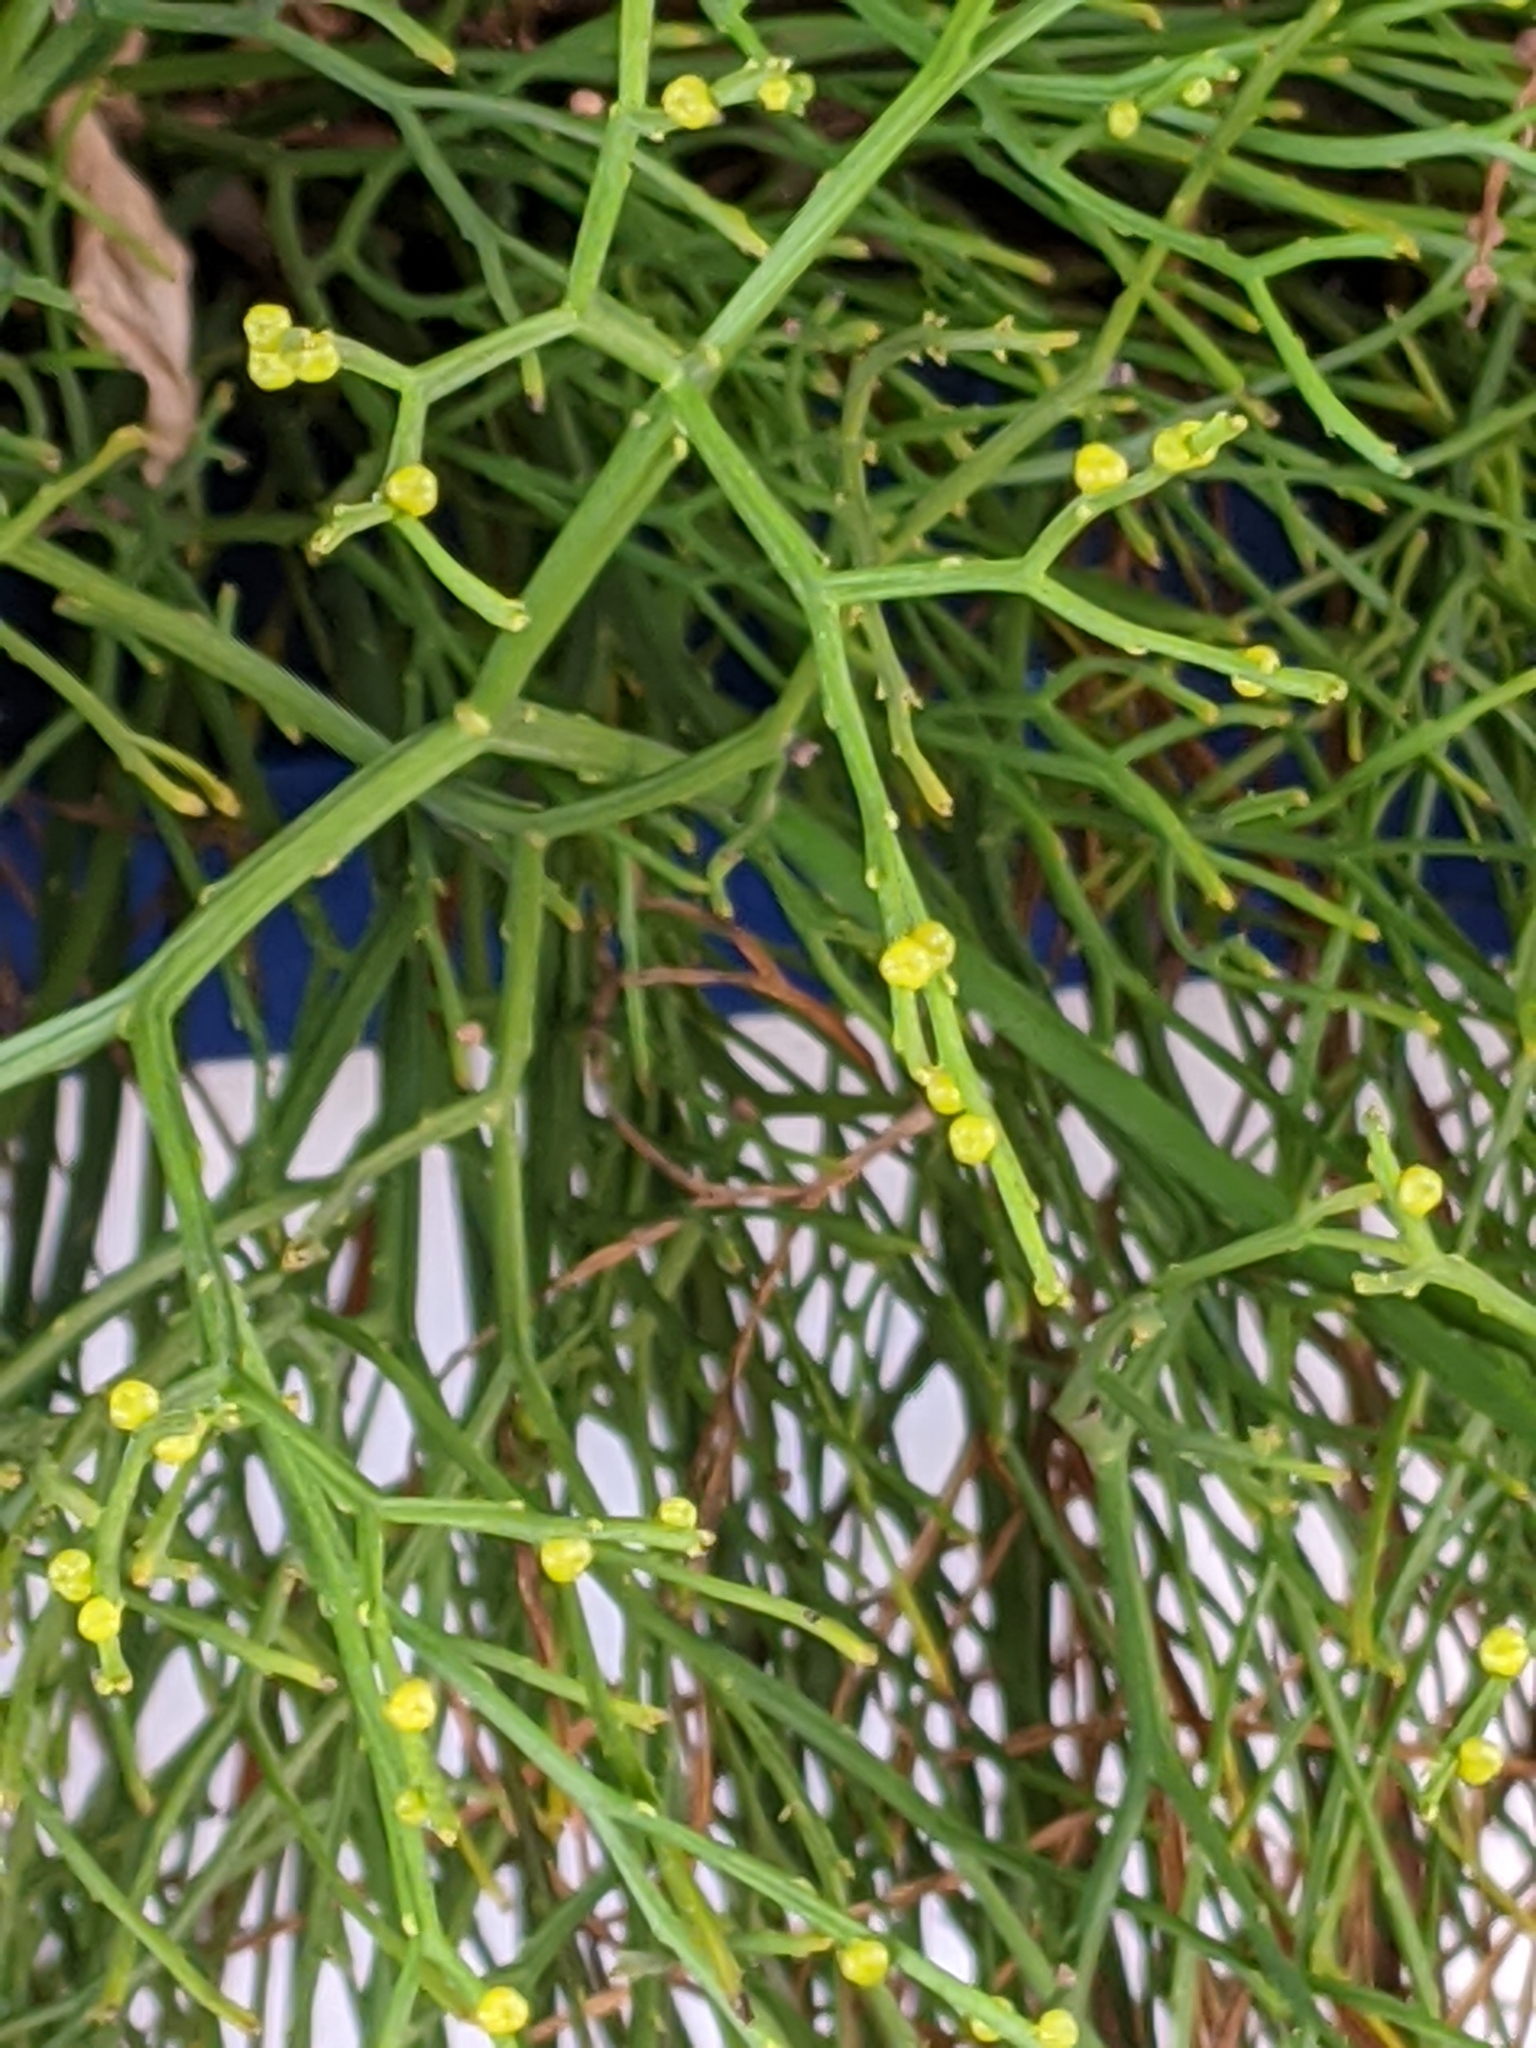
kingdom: Plantae
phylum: Tracheophyta
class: Polypodiopsida
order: Psilotales
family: Psilotaceae
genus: Psilotum
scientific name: Psilotum nudum
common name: Skeleton fork fern
